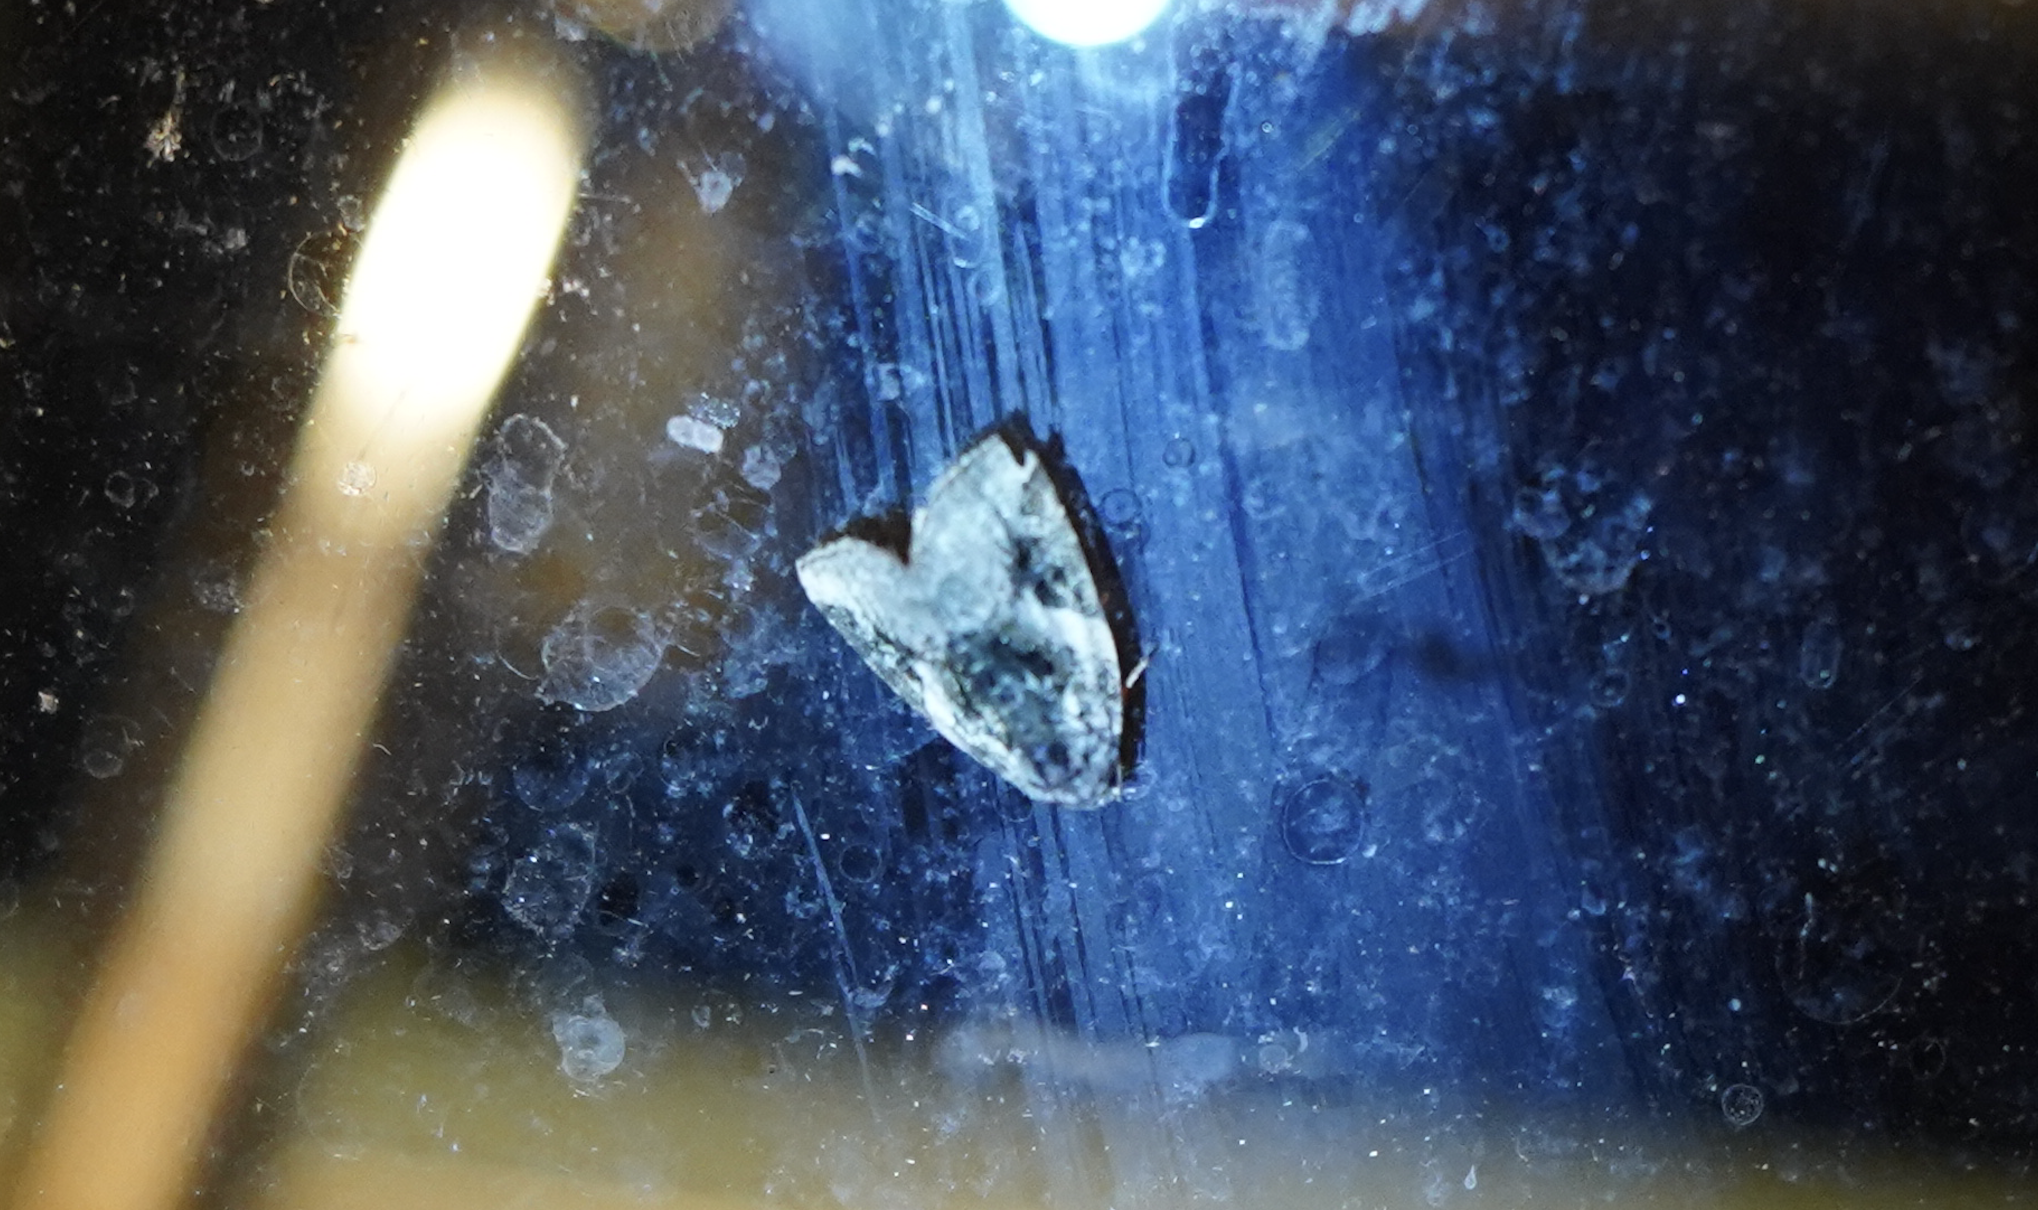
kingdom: Animalia
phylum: Arthropoda
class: Insecta
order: Lepidoptera
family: Noctuidae
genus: Pseudeustrotia
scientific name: Pseudeustrotia carneola
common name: Pink-barred lithacodia moth
